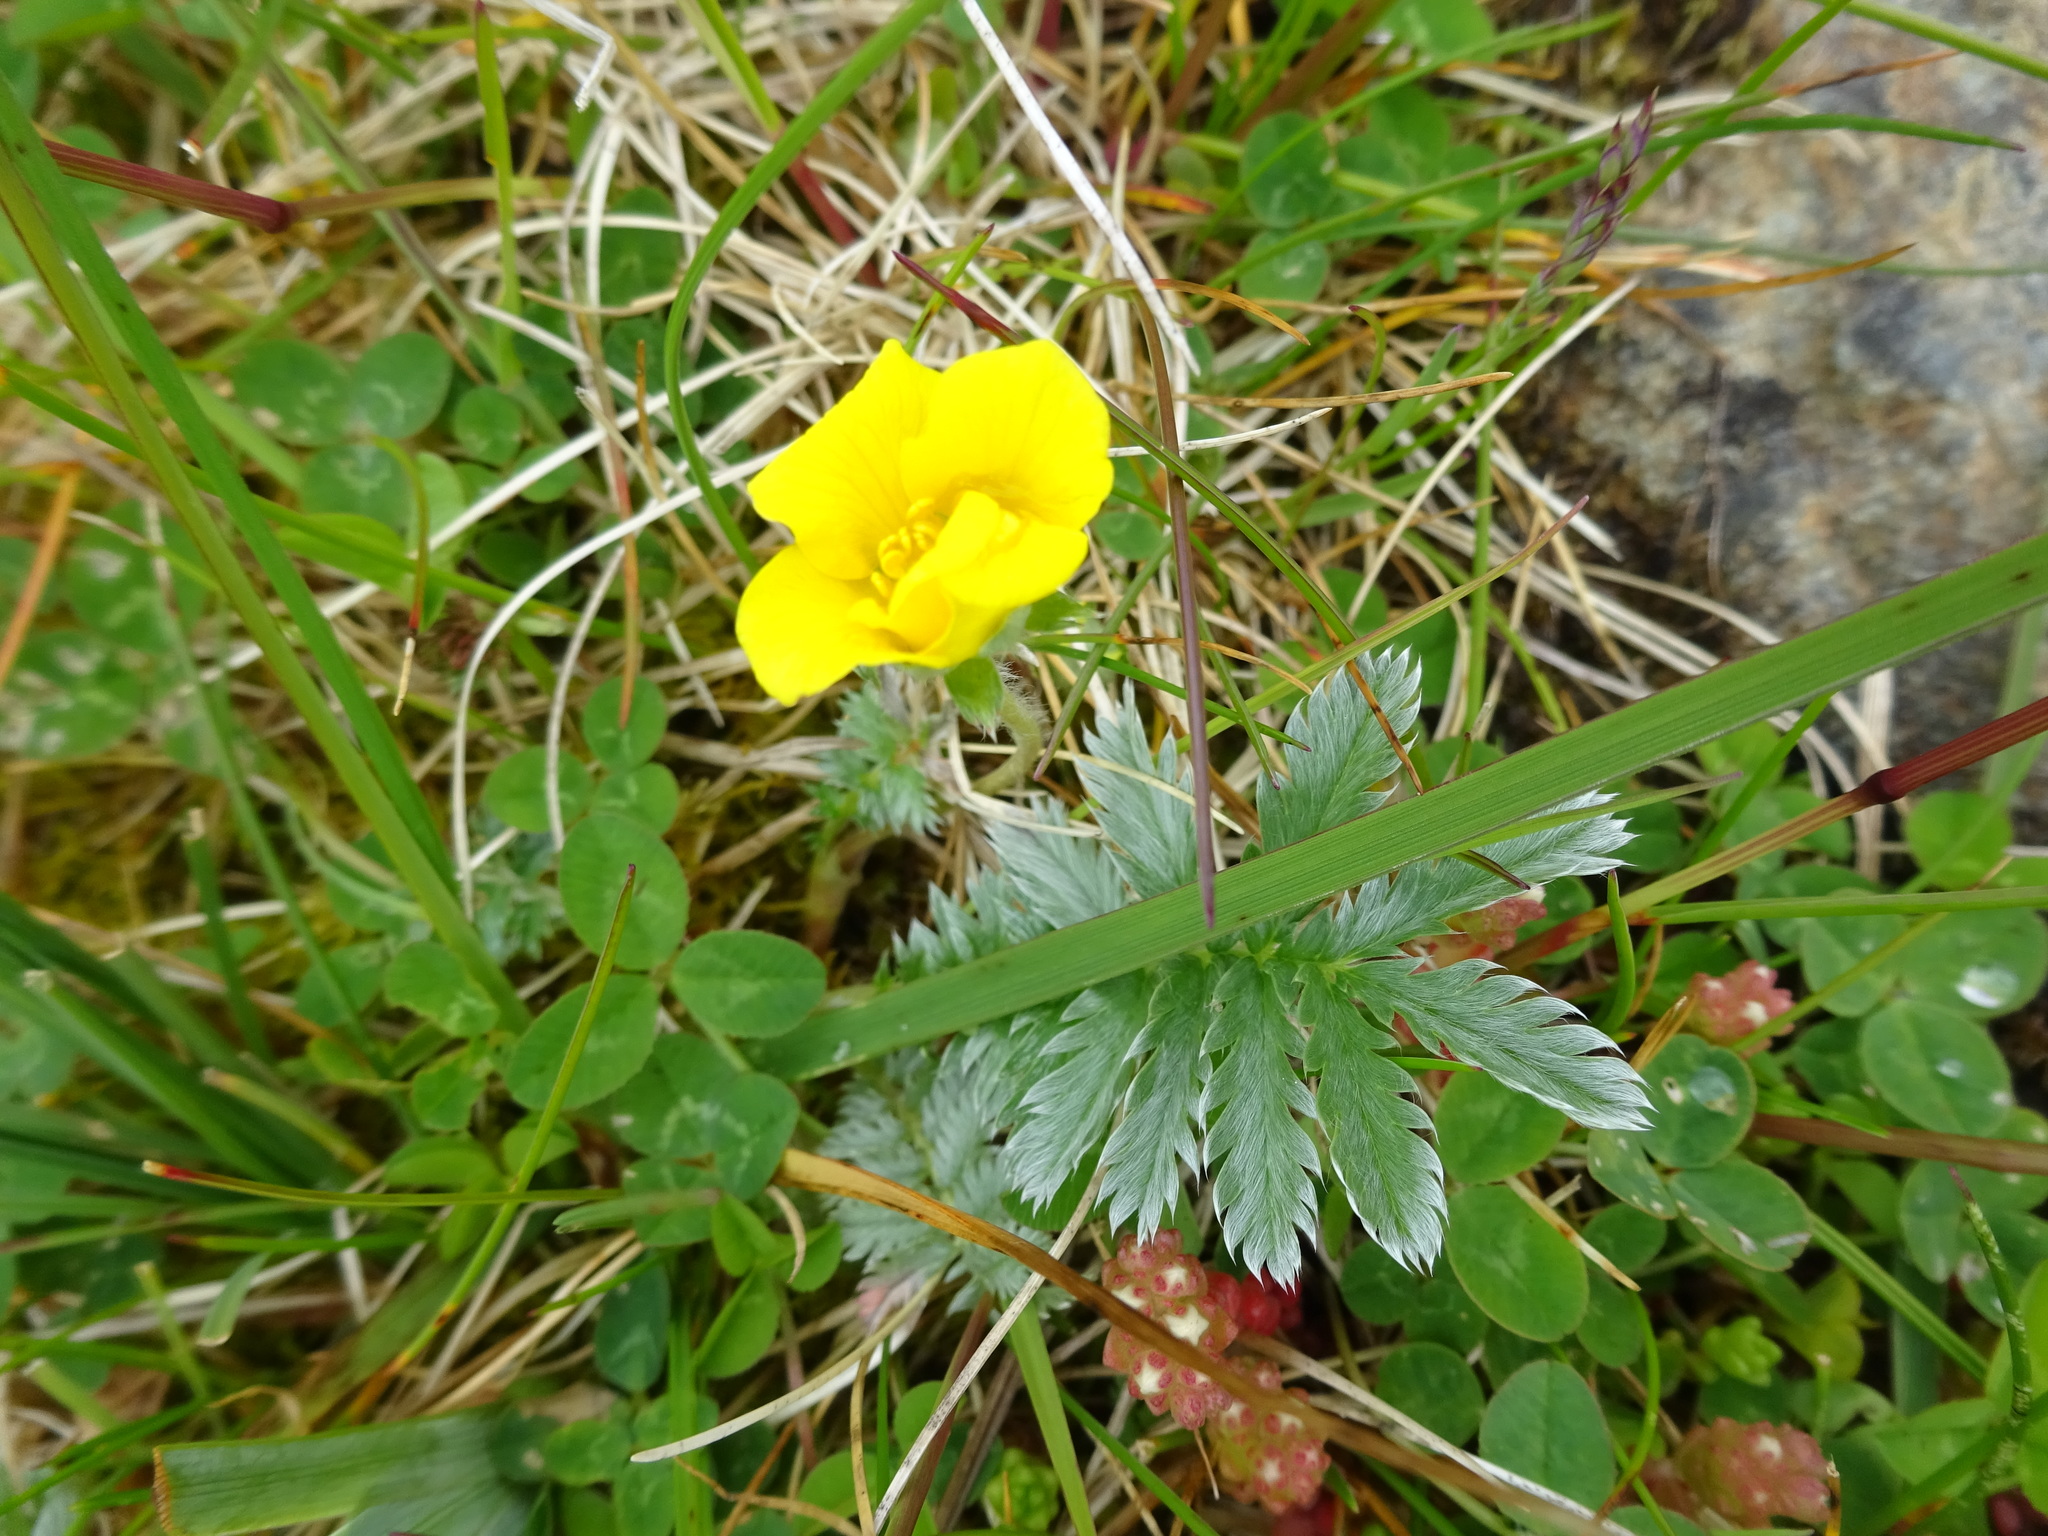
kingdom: Plantae
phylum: Tracheophyta
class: Magnoliopsida
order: Rosales
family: Rosaceae
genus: Argentina
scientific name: Argentina anserina
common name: Common silverweed
